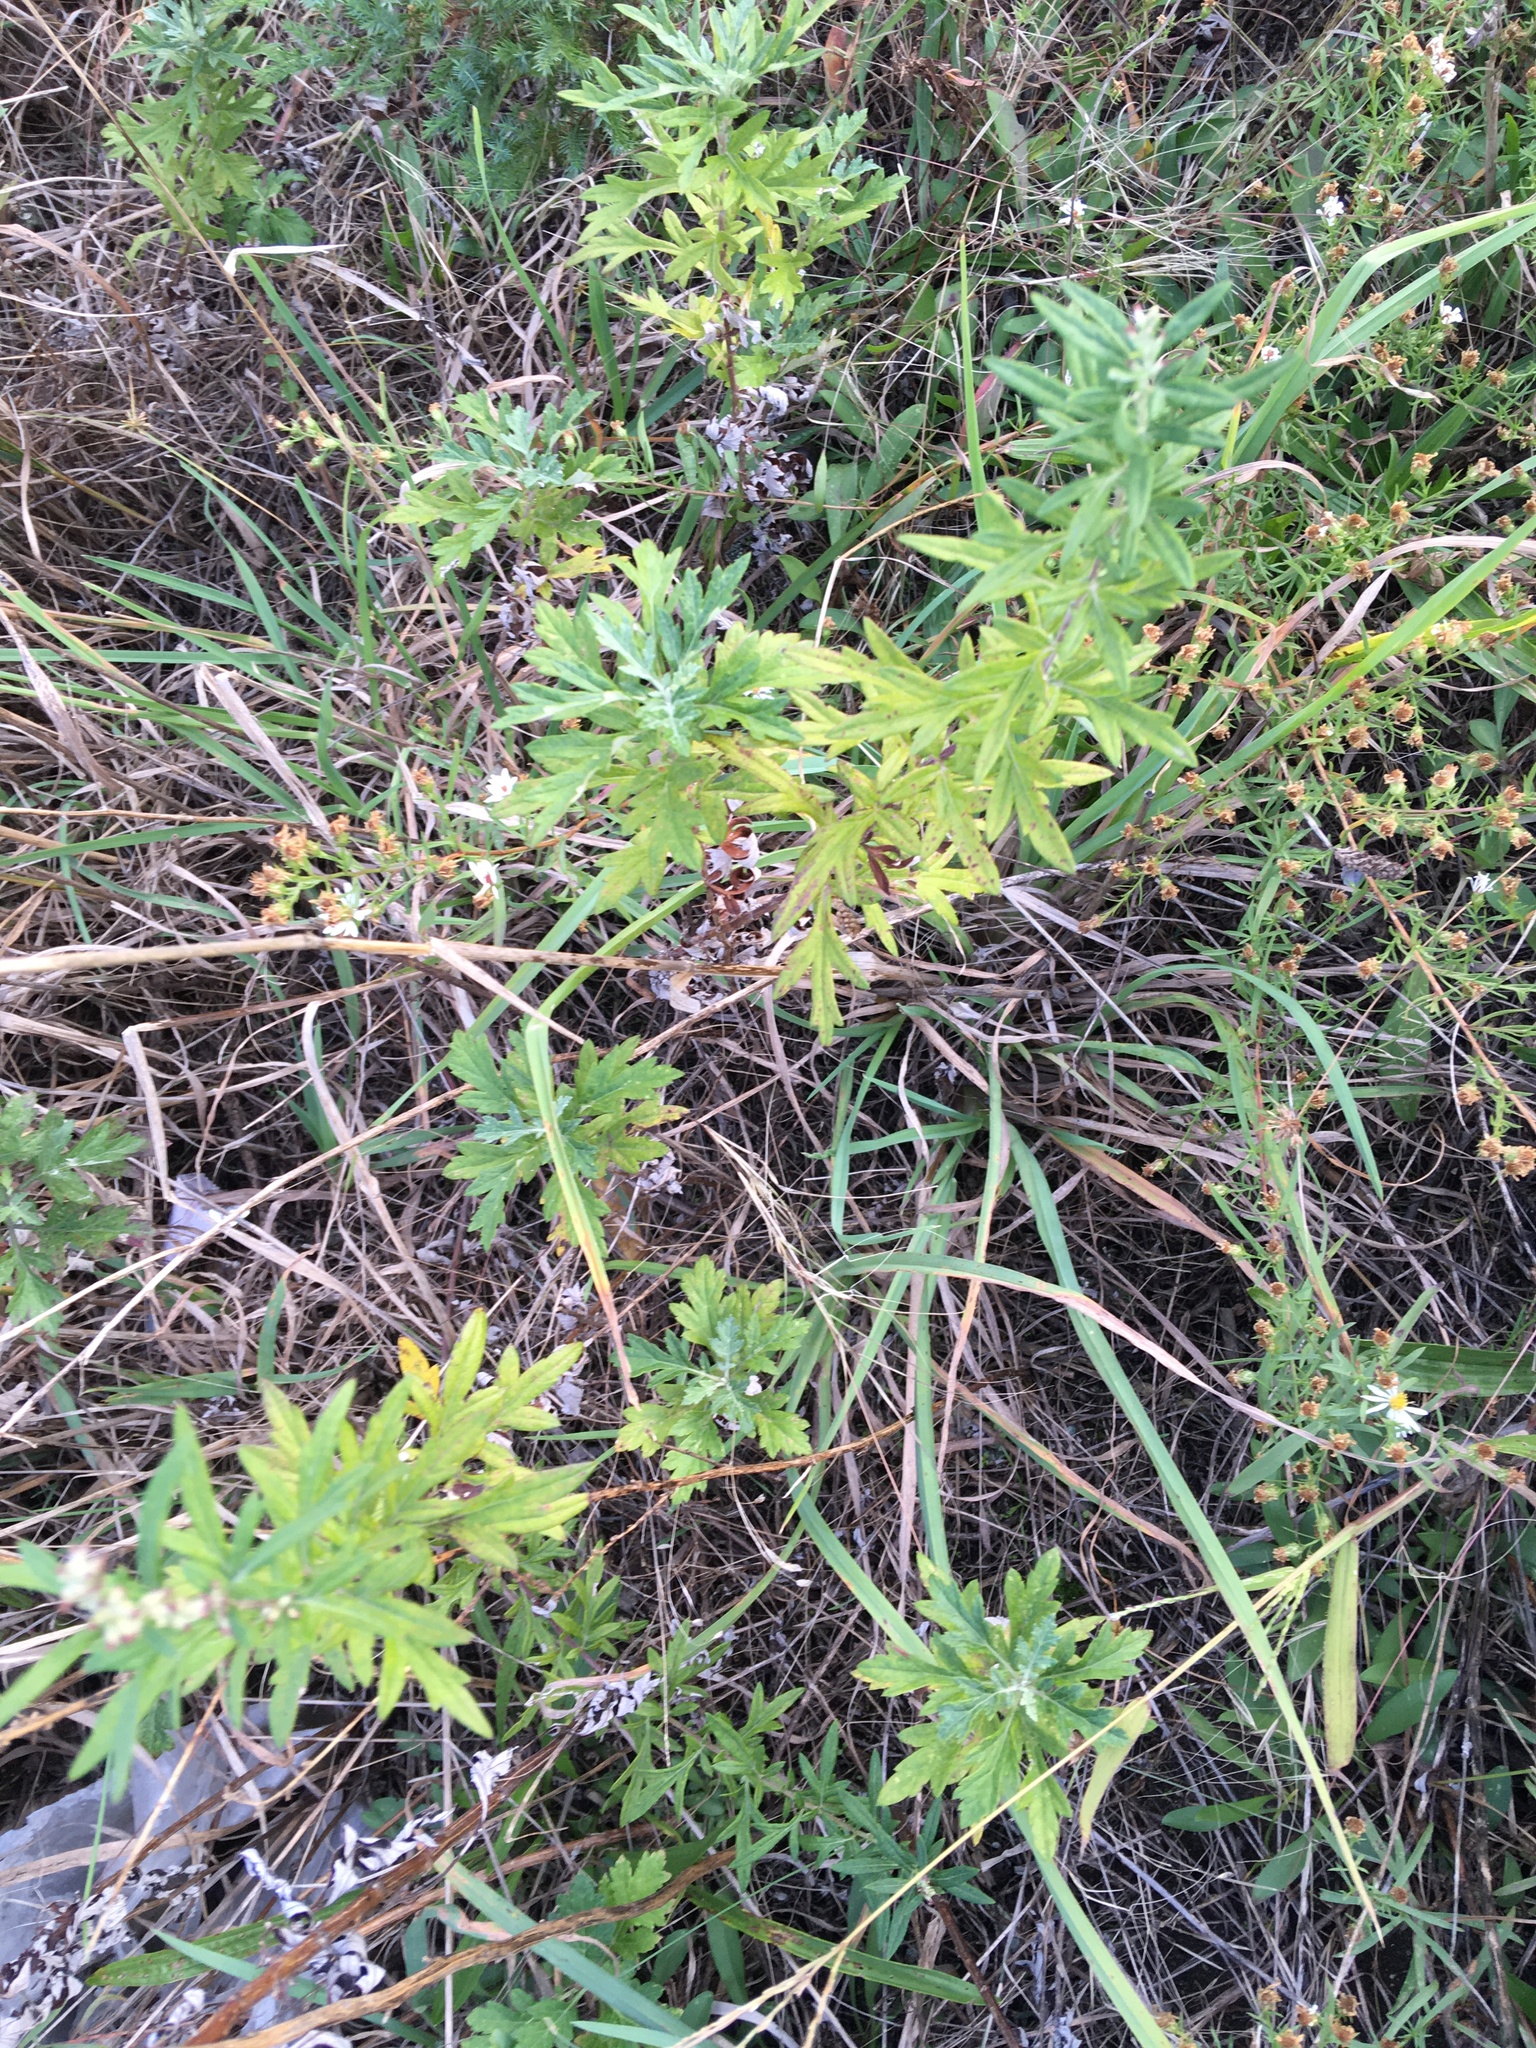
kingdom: Plantae
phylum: Tracheophyta
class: Magnoliopsida
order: Asterales
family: Asteraceae
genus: Artemisia
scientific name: Artemisia vulgaris
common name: Mugwort
